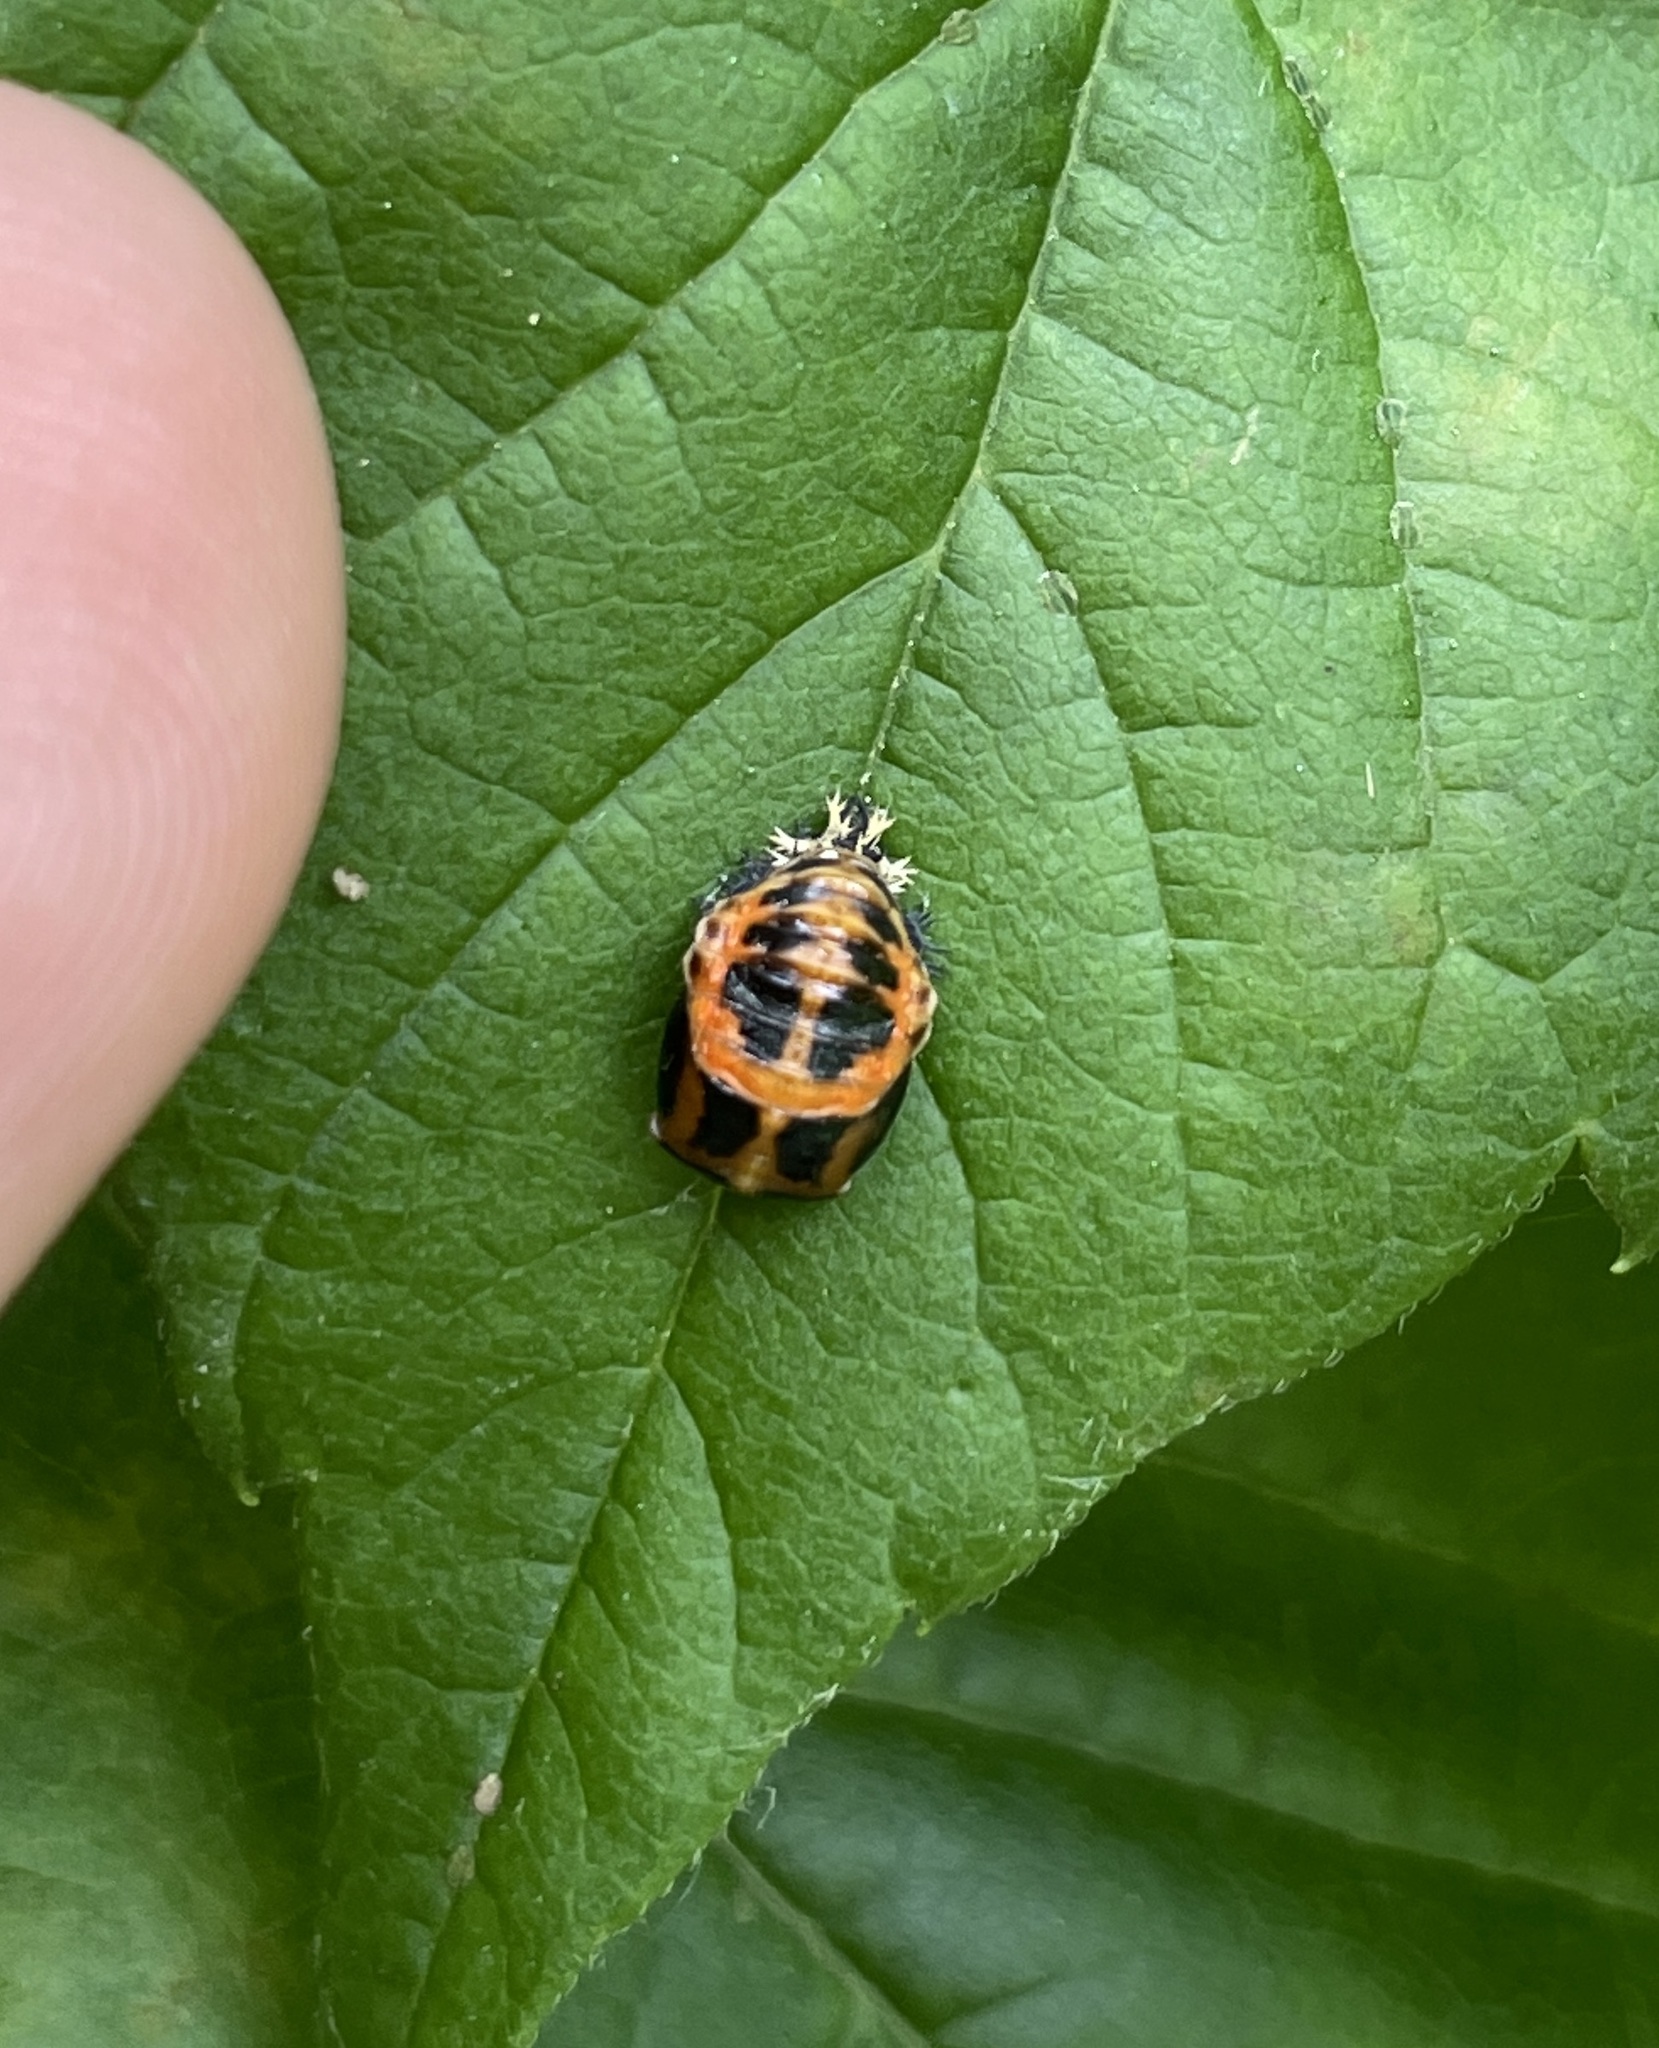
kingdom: Animalia
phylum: Arthropoda
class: Insecta
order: Coleoptera
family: Coccinellidae
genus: Harmonia
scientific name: Harmonia axyridis
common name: Harlequin ladybird
